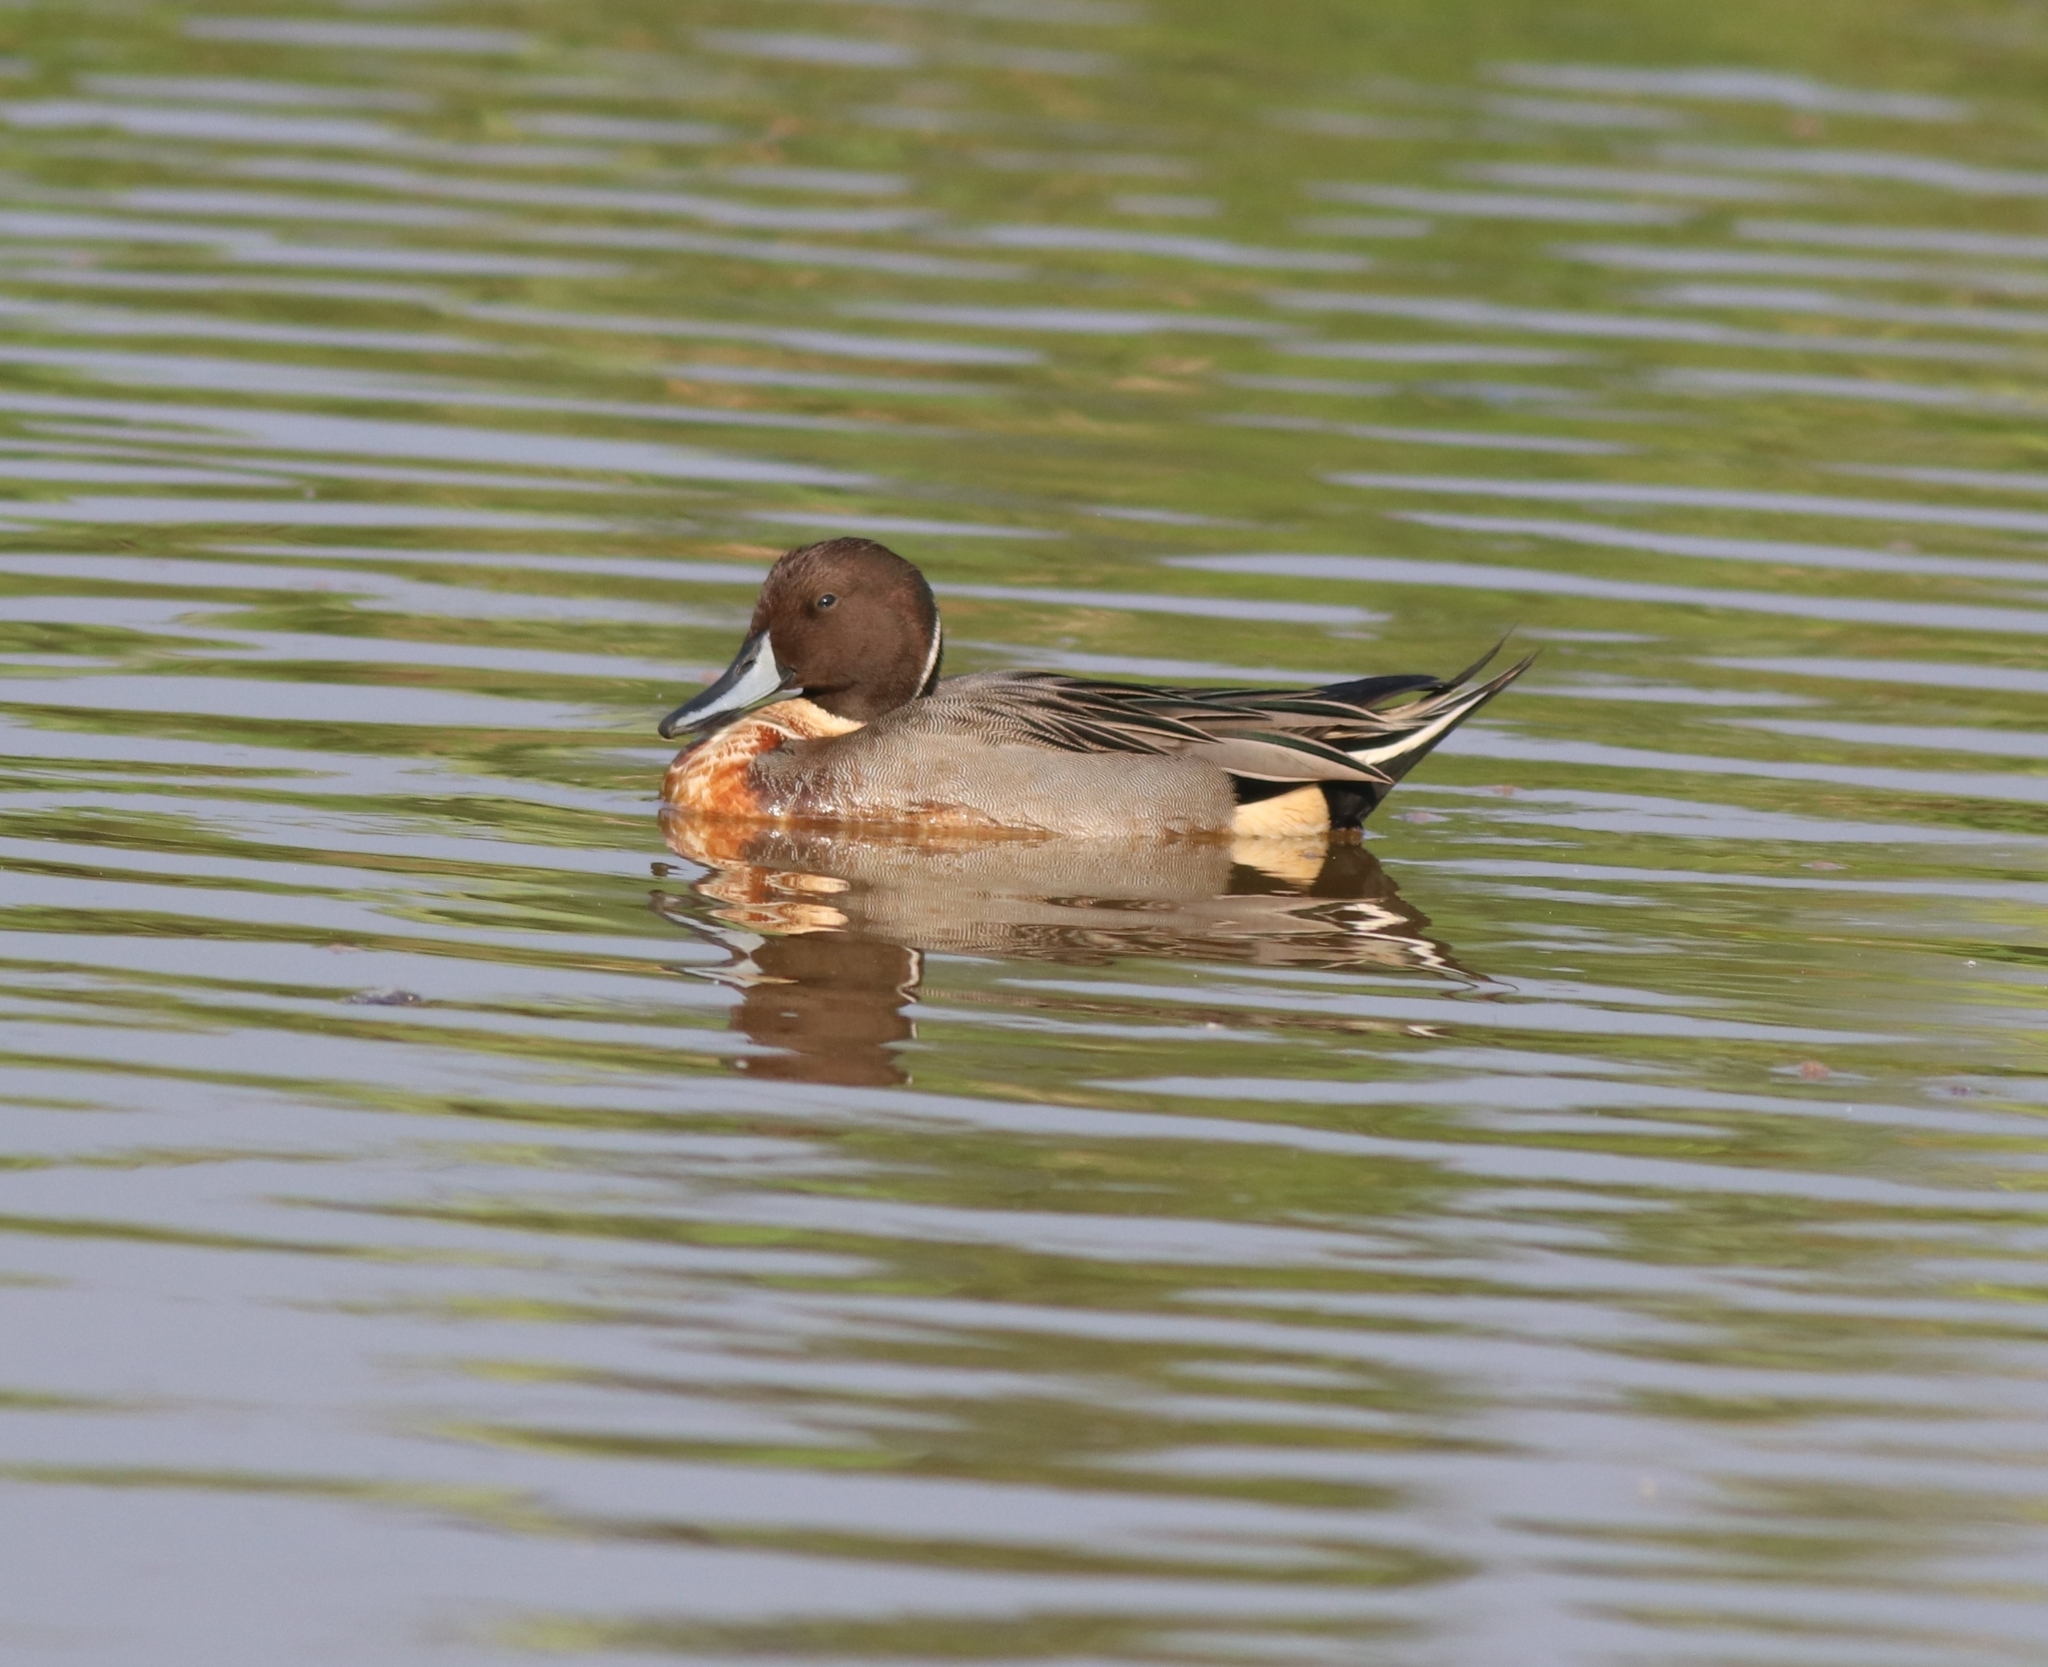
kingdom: Animalia
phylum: Chordata
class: Aves
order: Anseriformes
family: Anatidae
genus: Anas
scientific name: Anas acuta
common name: Northern pintail
